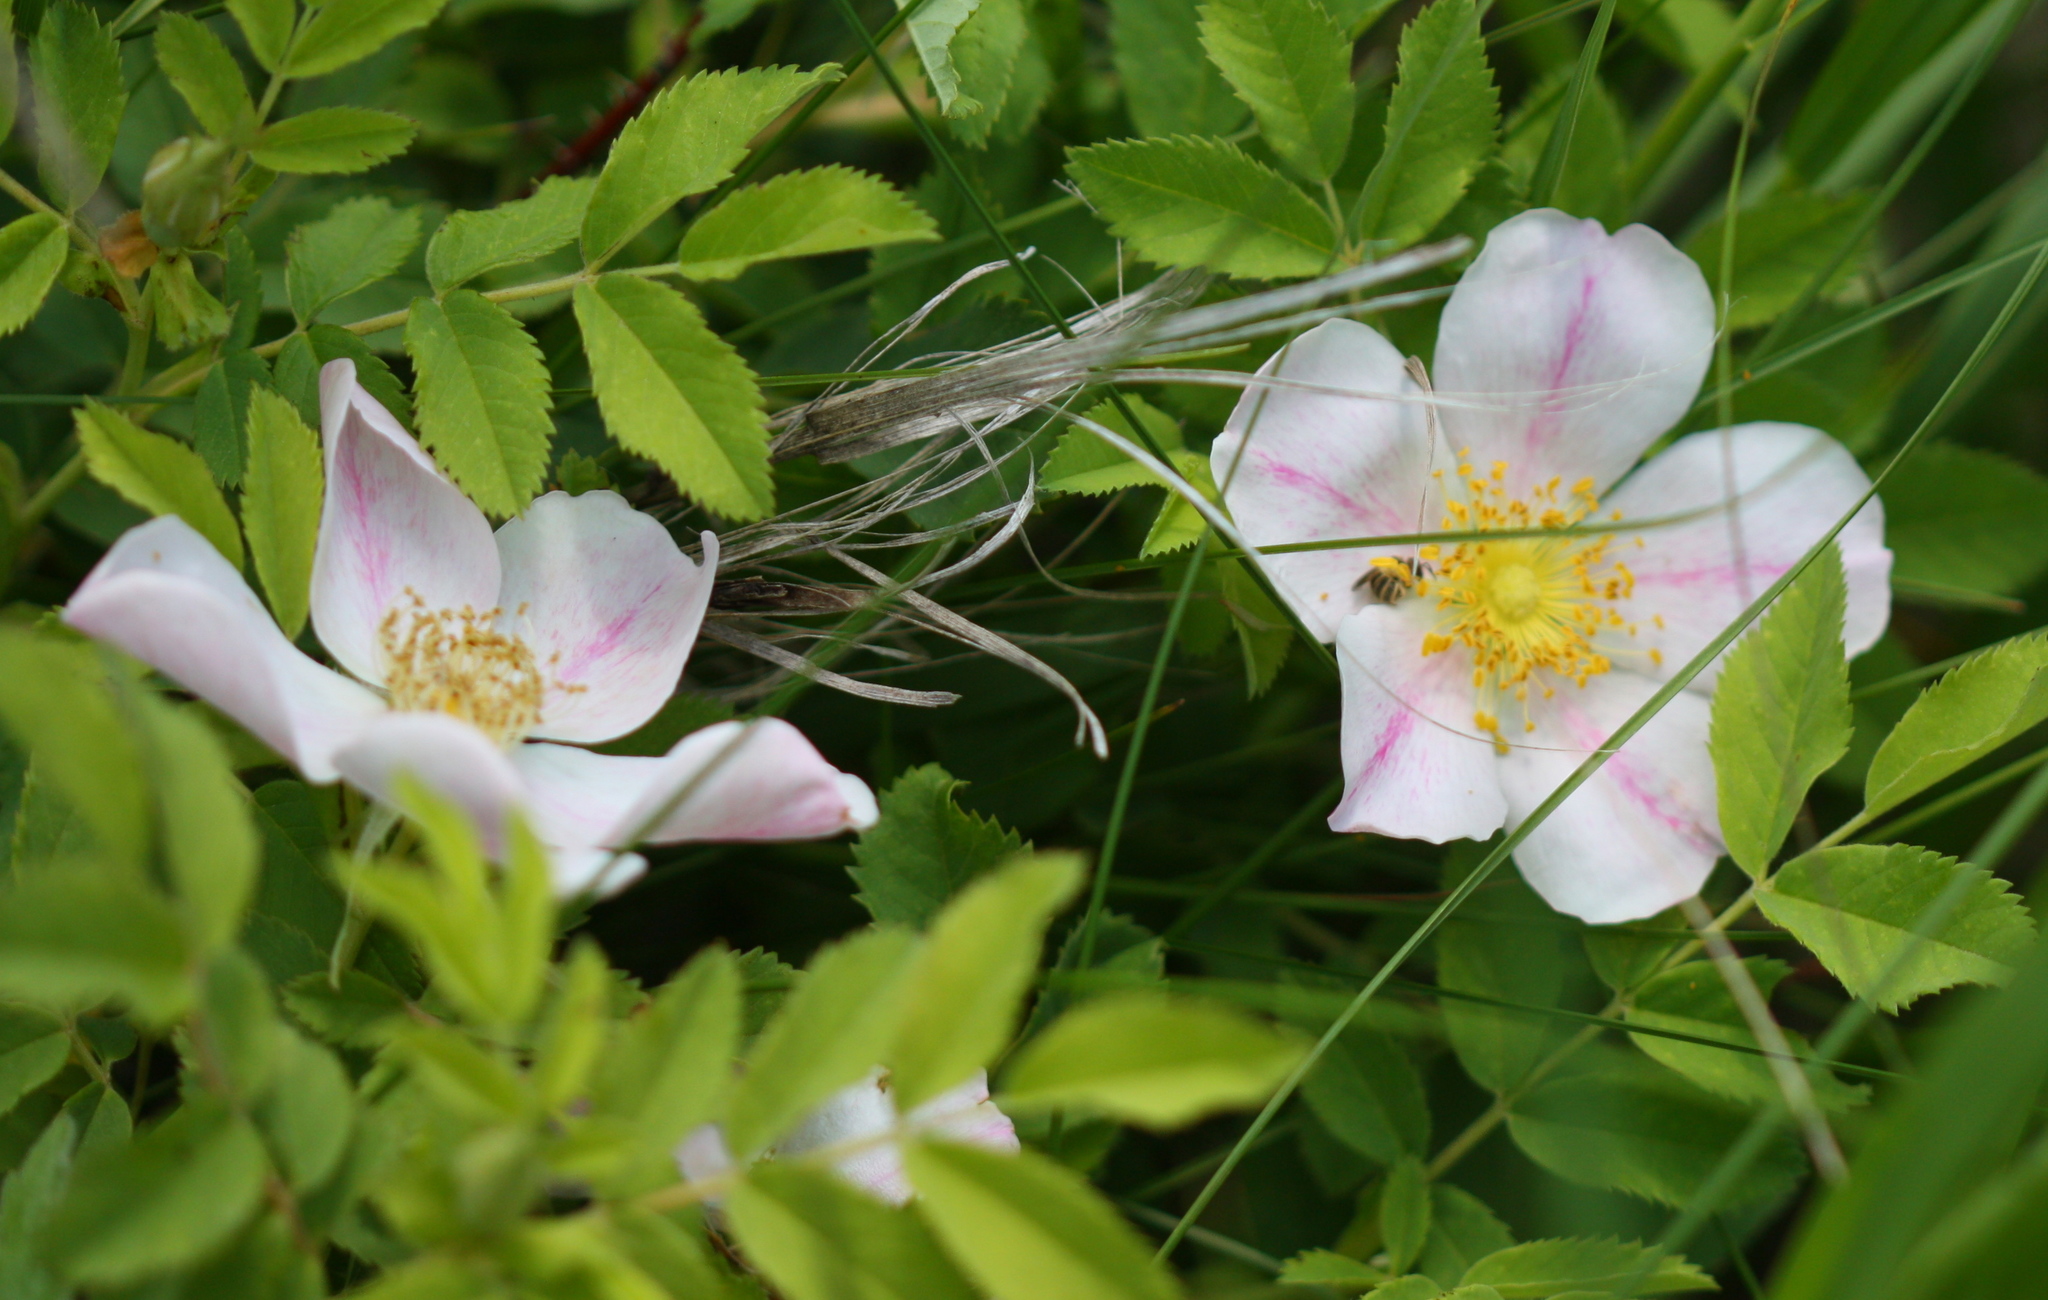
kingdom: Plantae
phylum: Tracheophyta
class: Magnoliopsida
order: Rosales
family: Rosaceae
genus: Rosa
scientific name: Rosa arkansana
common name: Prairie rose
